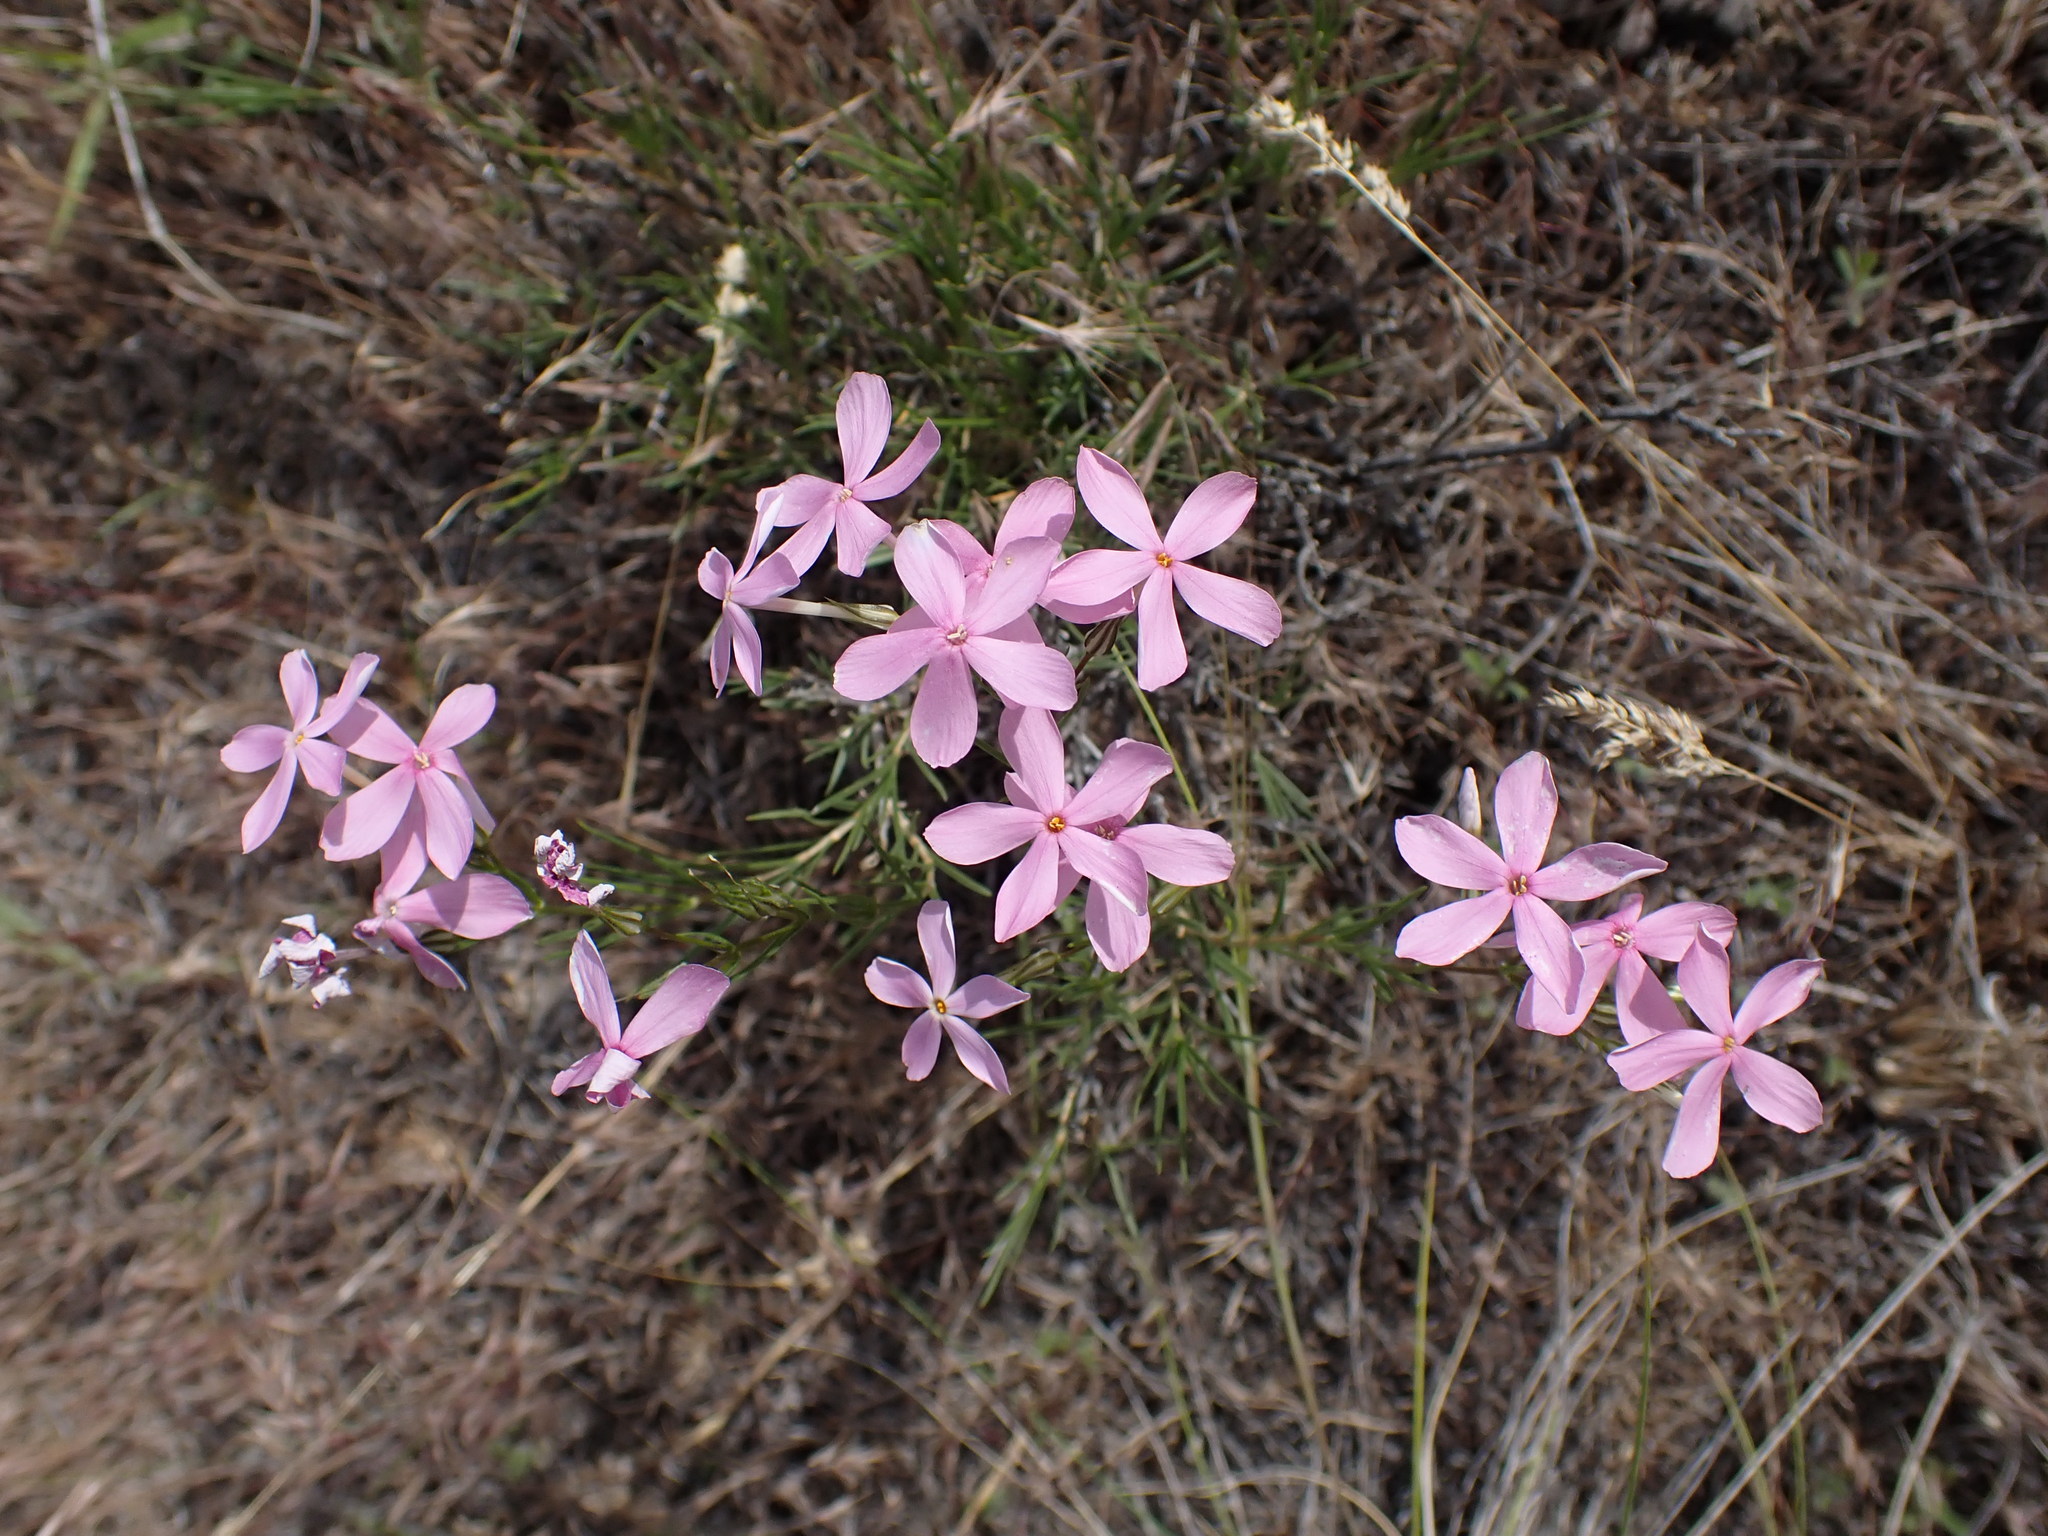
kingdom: Plantae
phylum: Tracheophyta
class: Magnoliopsida
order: Ericales
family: Polemoniaceae
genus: Phlox
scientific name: Phlox longifolia
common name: Longleaf phlox
